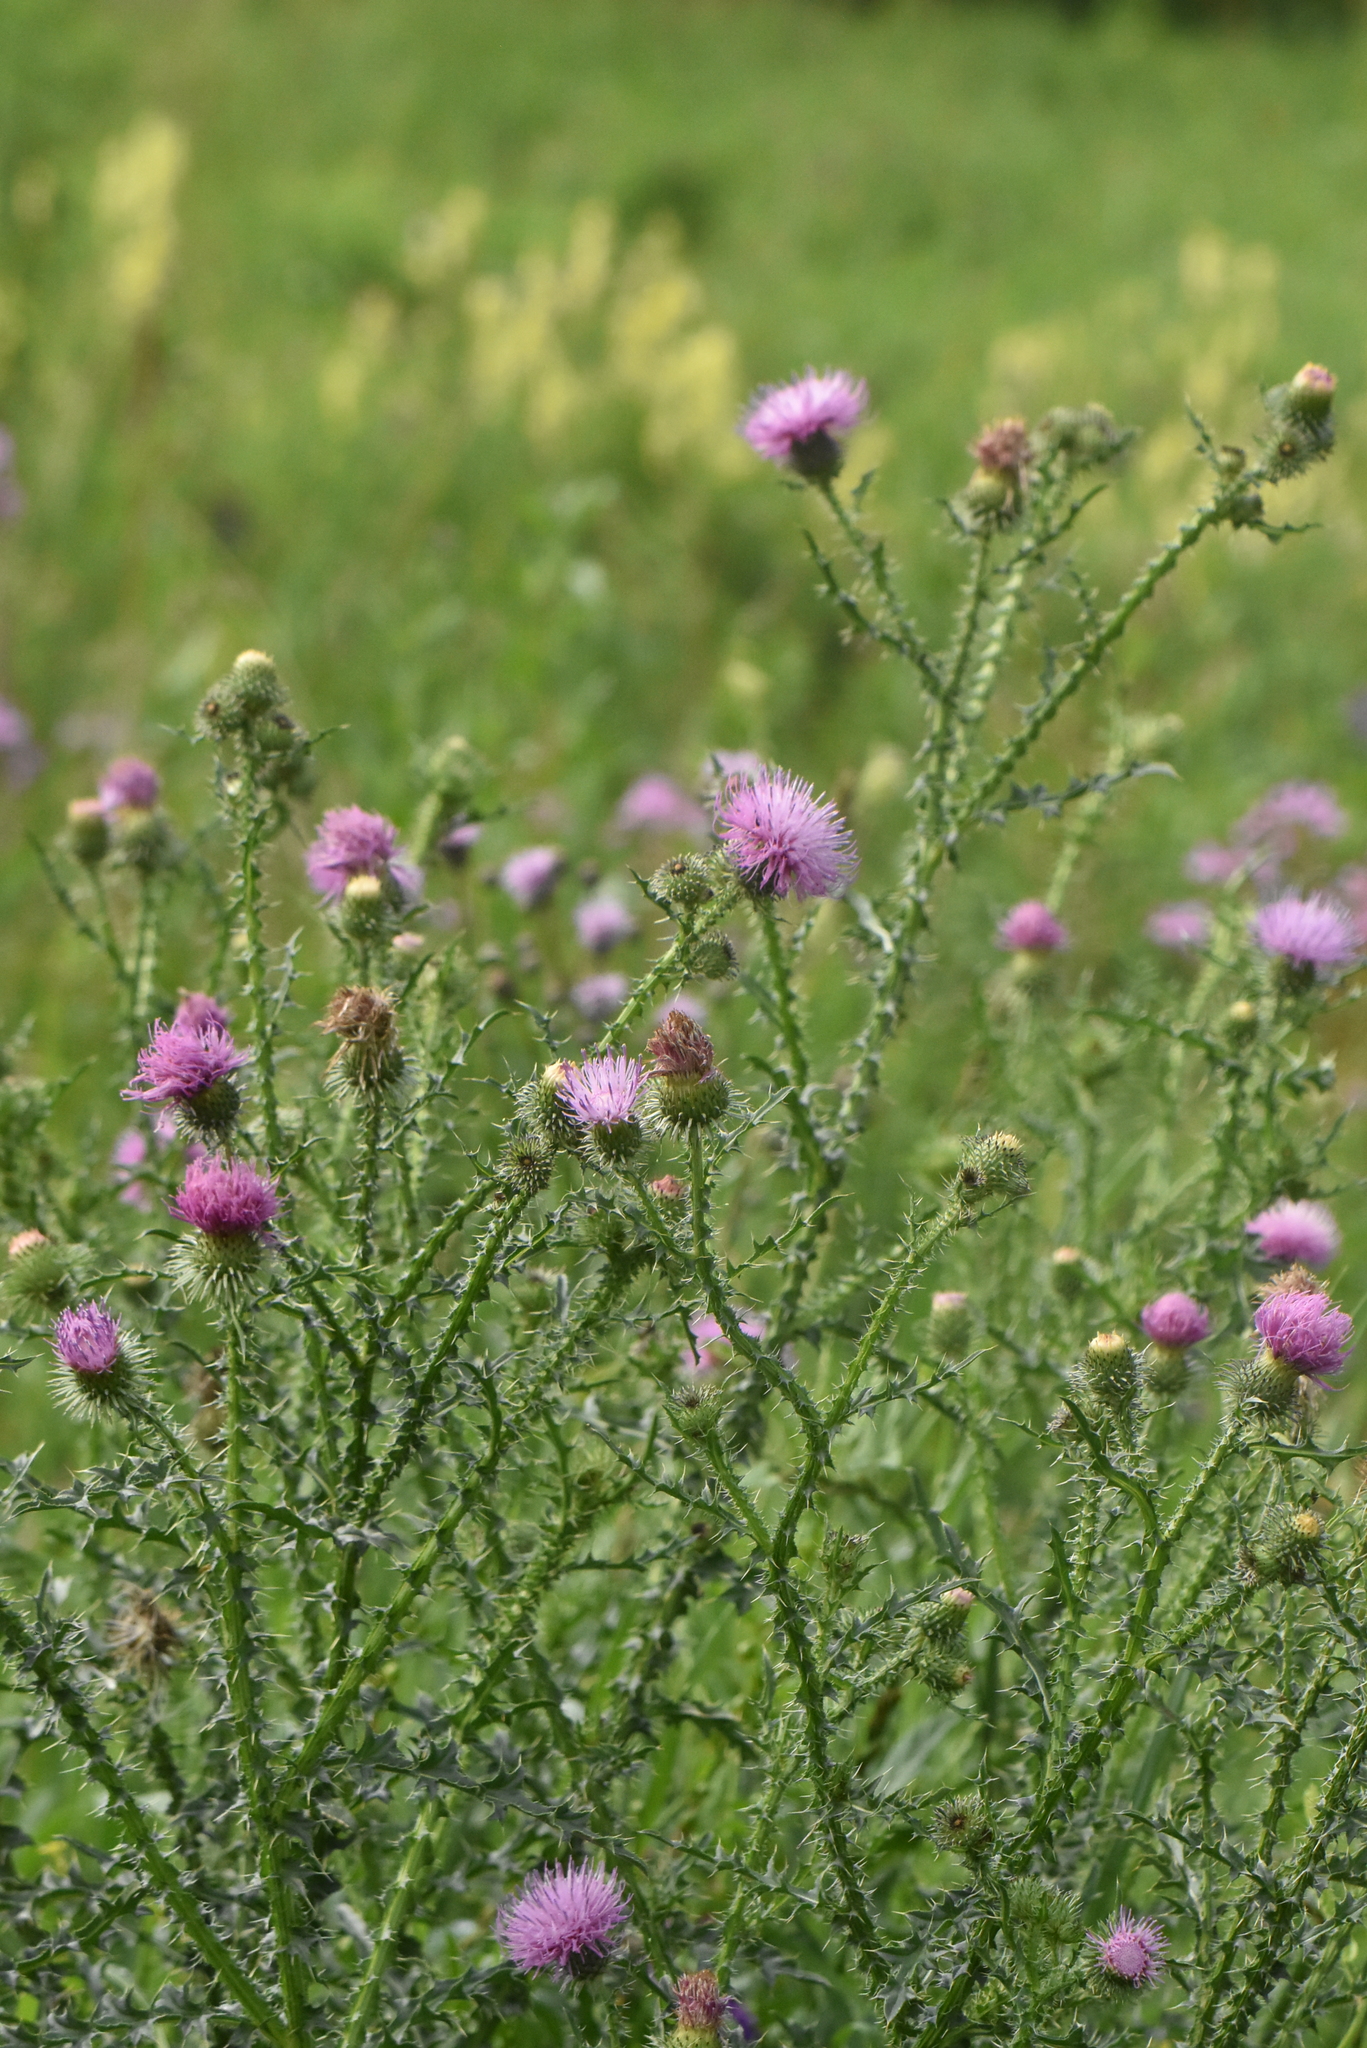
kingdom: Plantae
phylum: Tracheophyta
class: Magnoliopsida
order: Asterales
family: Asteraceae
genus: Carduus
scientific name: Carduus acanthoides
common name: Plumeless thistle
